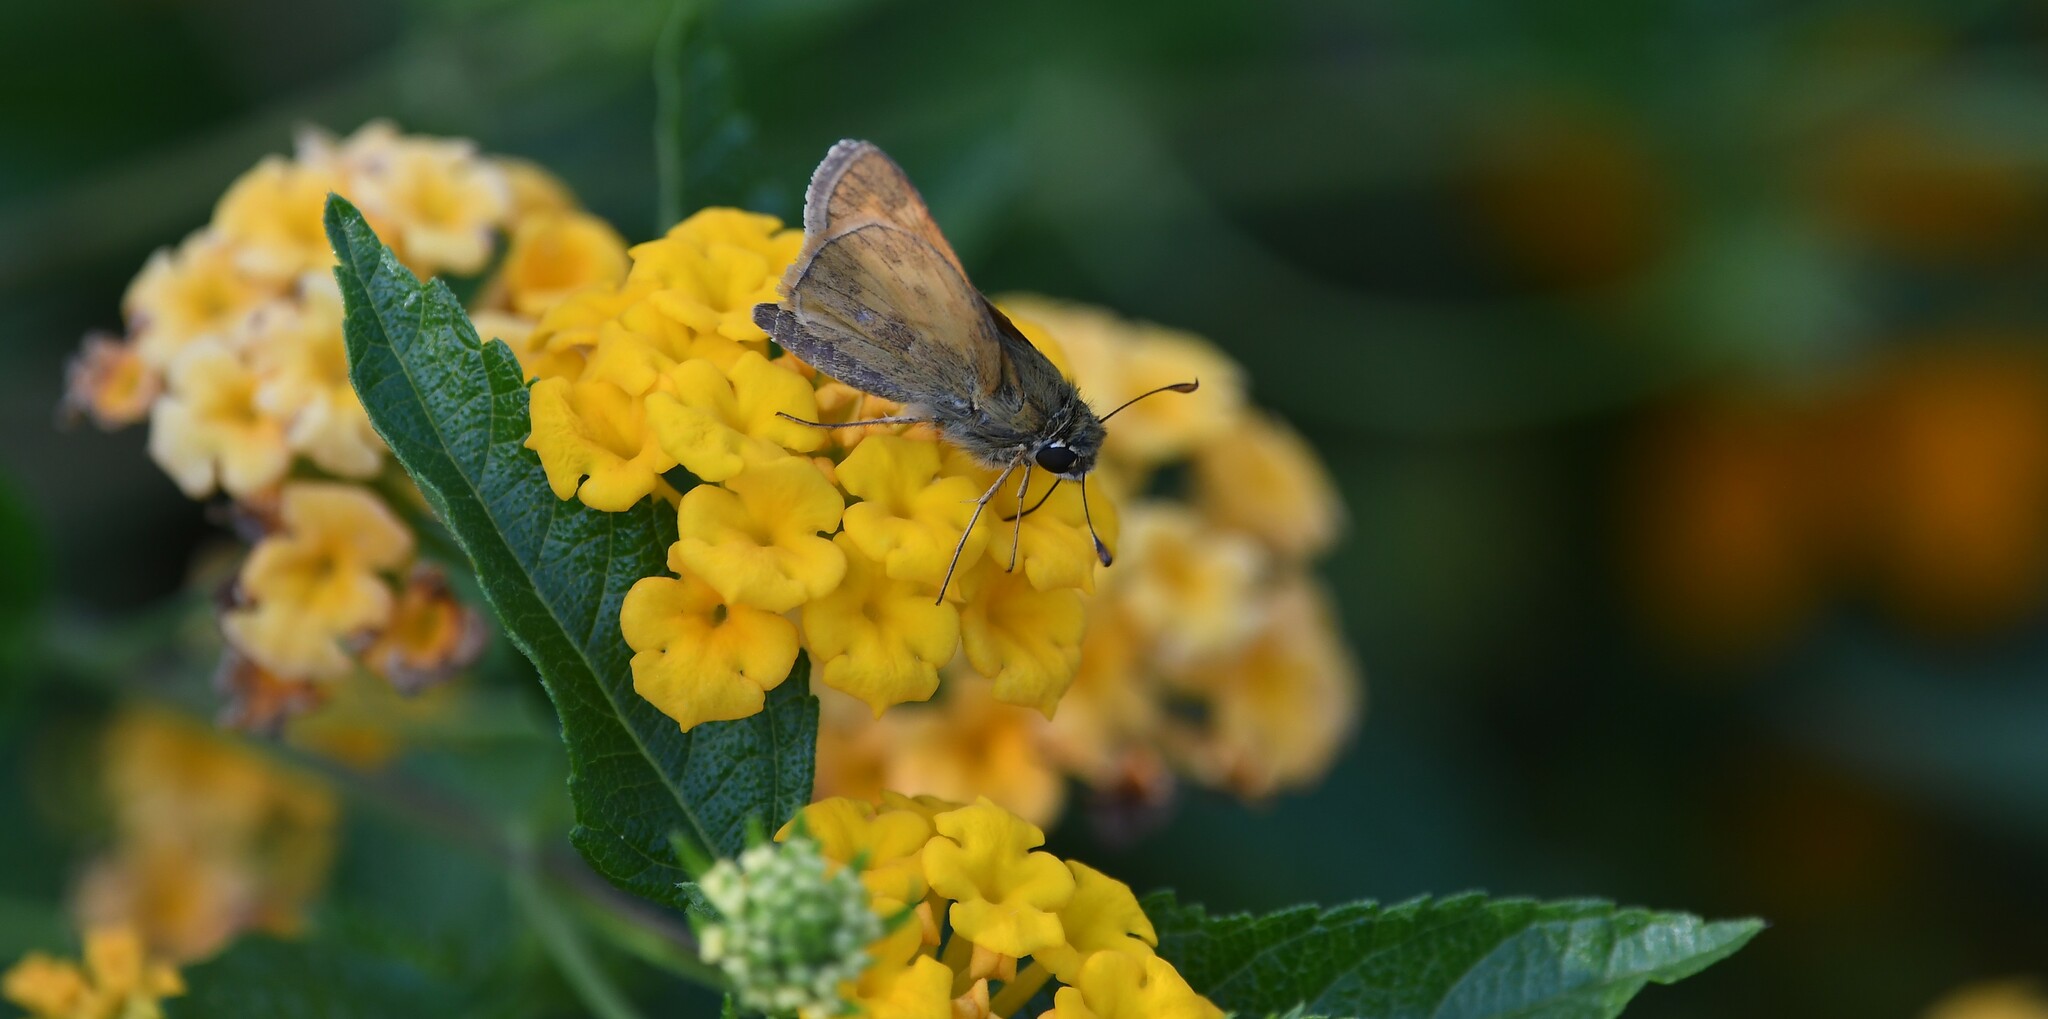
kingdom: Animalia
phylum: Arthropoda
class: Insecta
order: Lepidoptera
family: Hesperiidae
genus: Atalopedes
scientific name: Atalopedes
